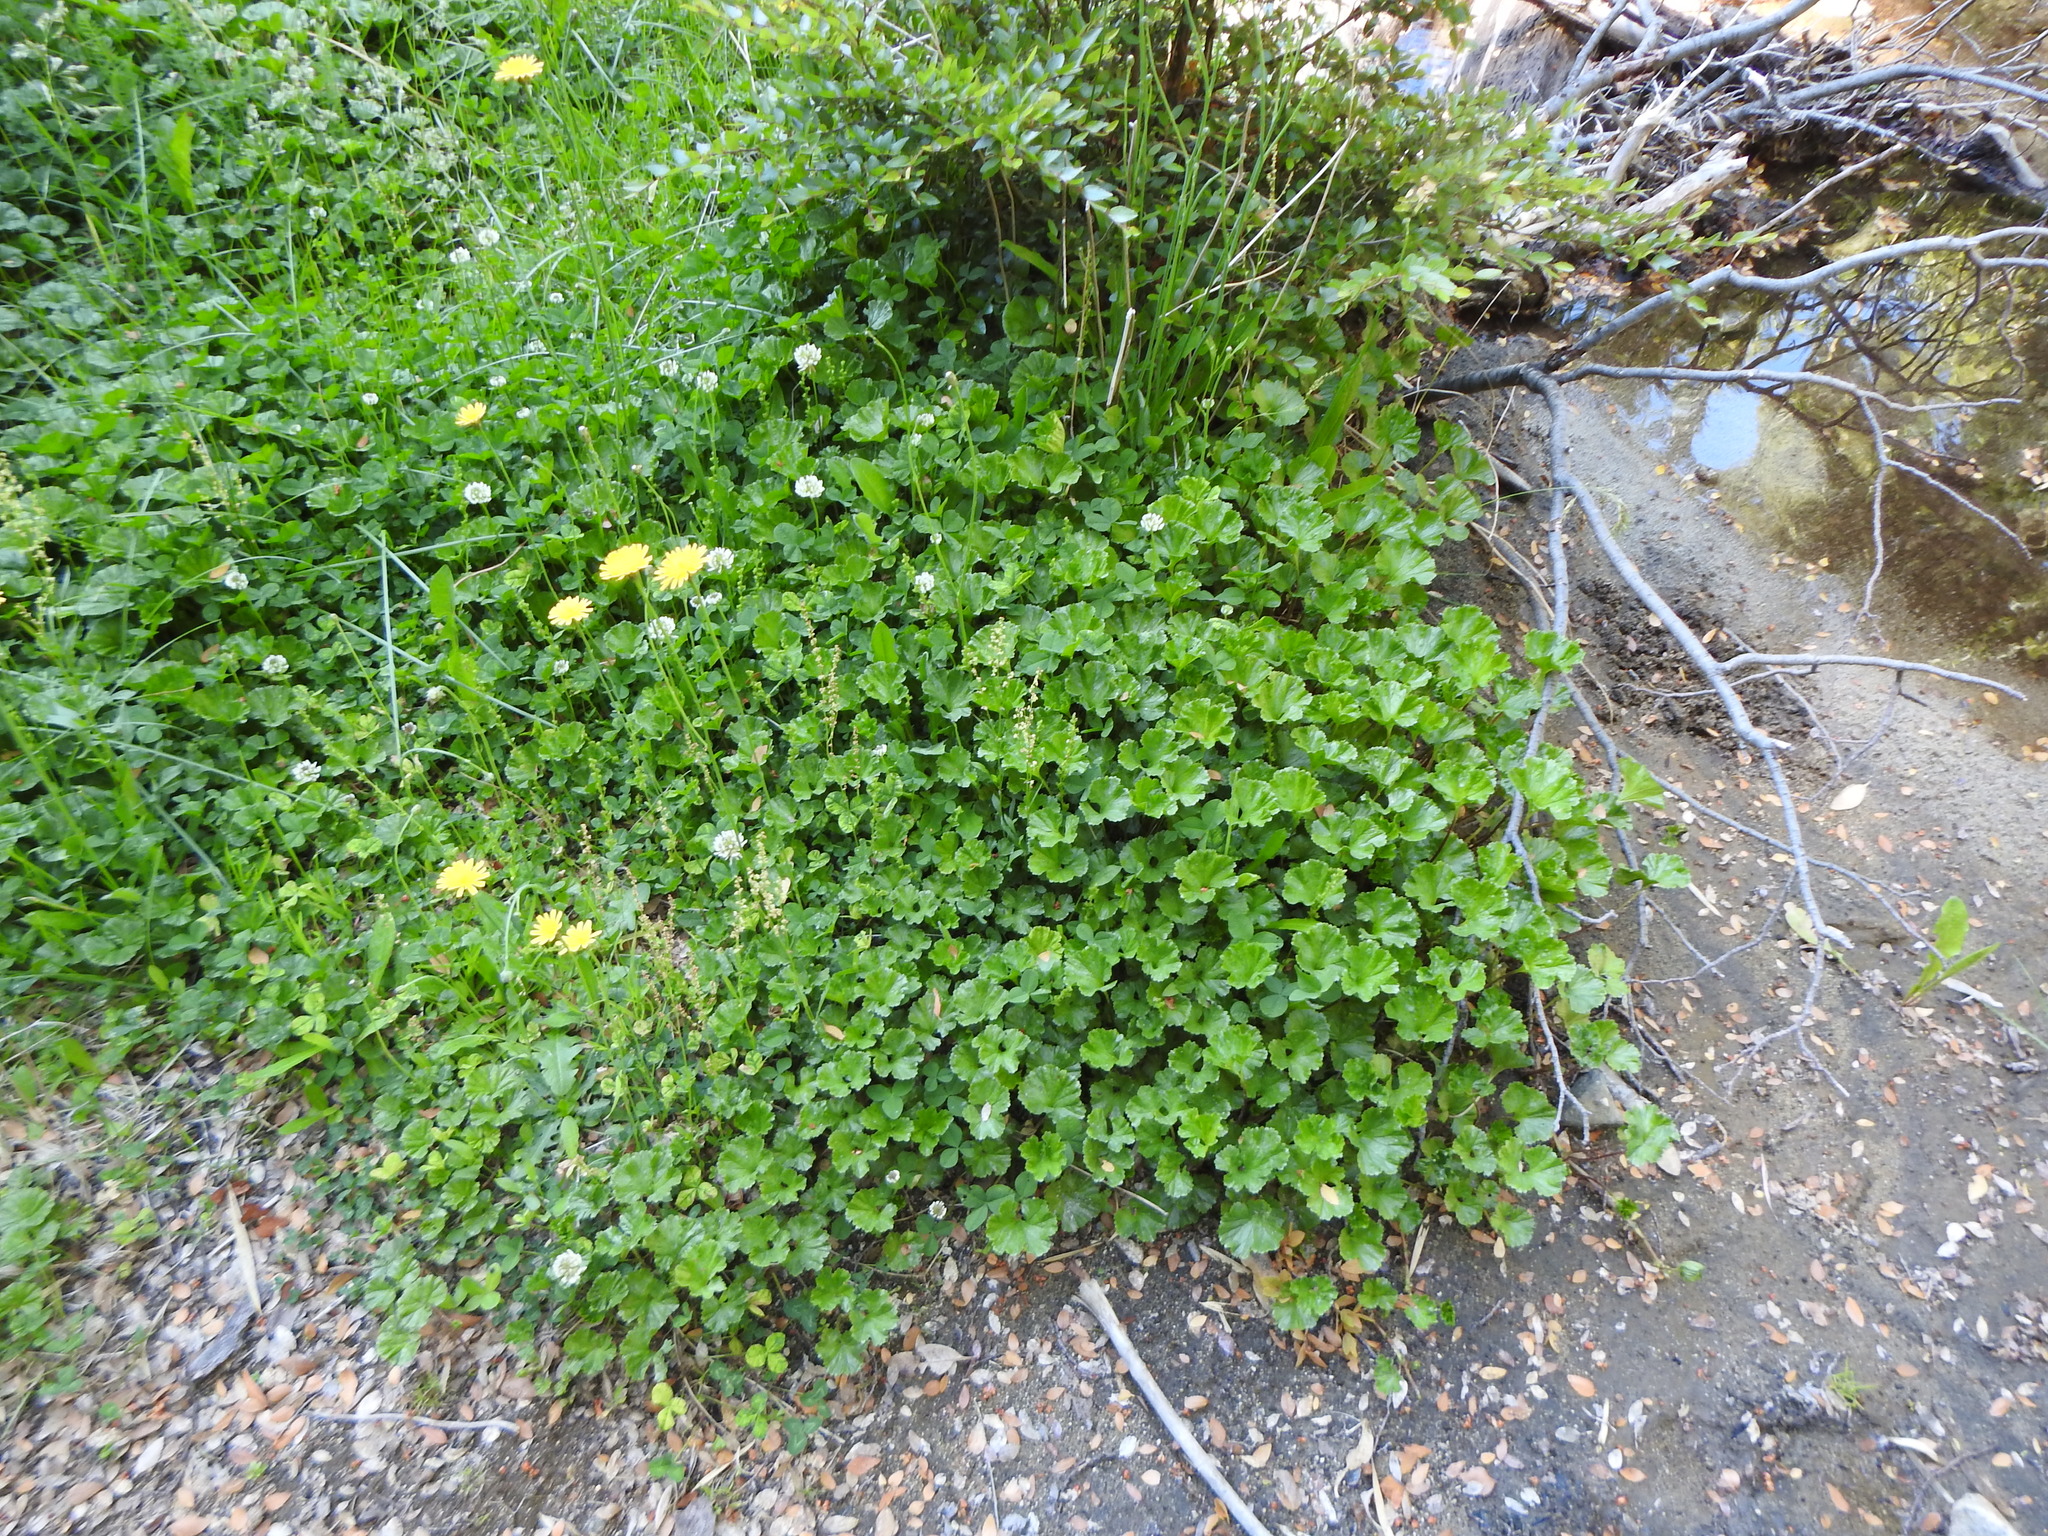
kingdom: Plantae
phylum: Tracheophyta
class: Magnoliopsida
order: Gunnerales
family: Gunneraceae
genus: Gunnera
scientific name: Gunnera magellanica
